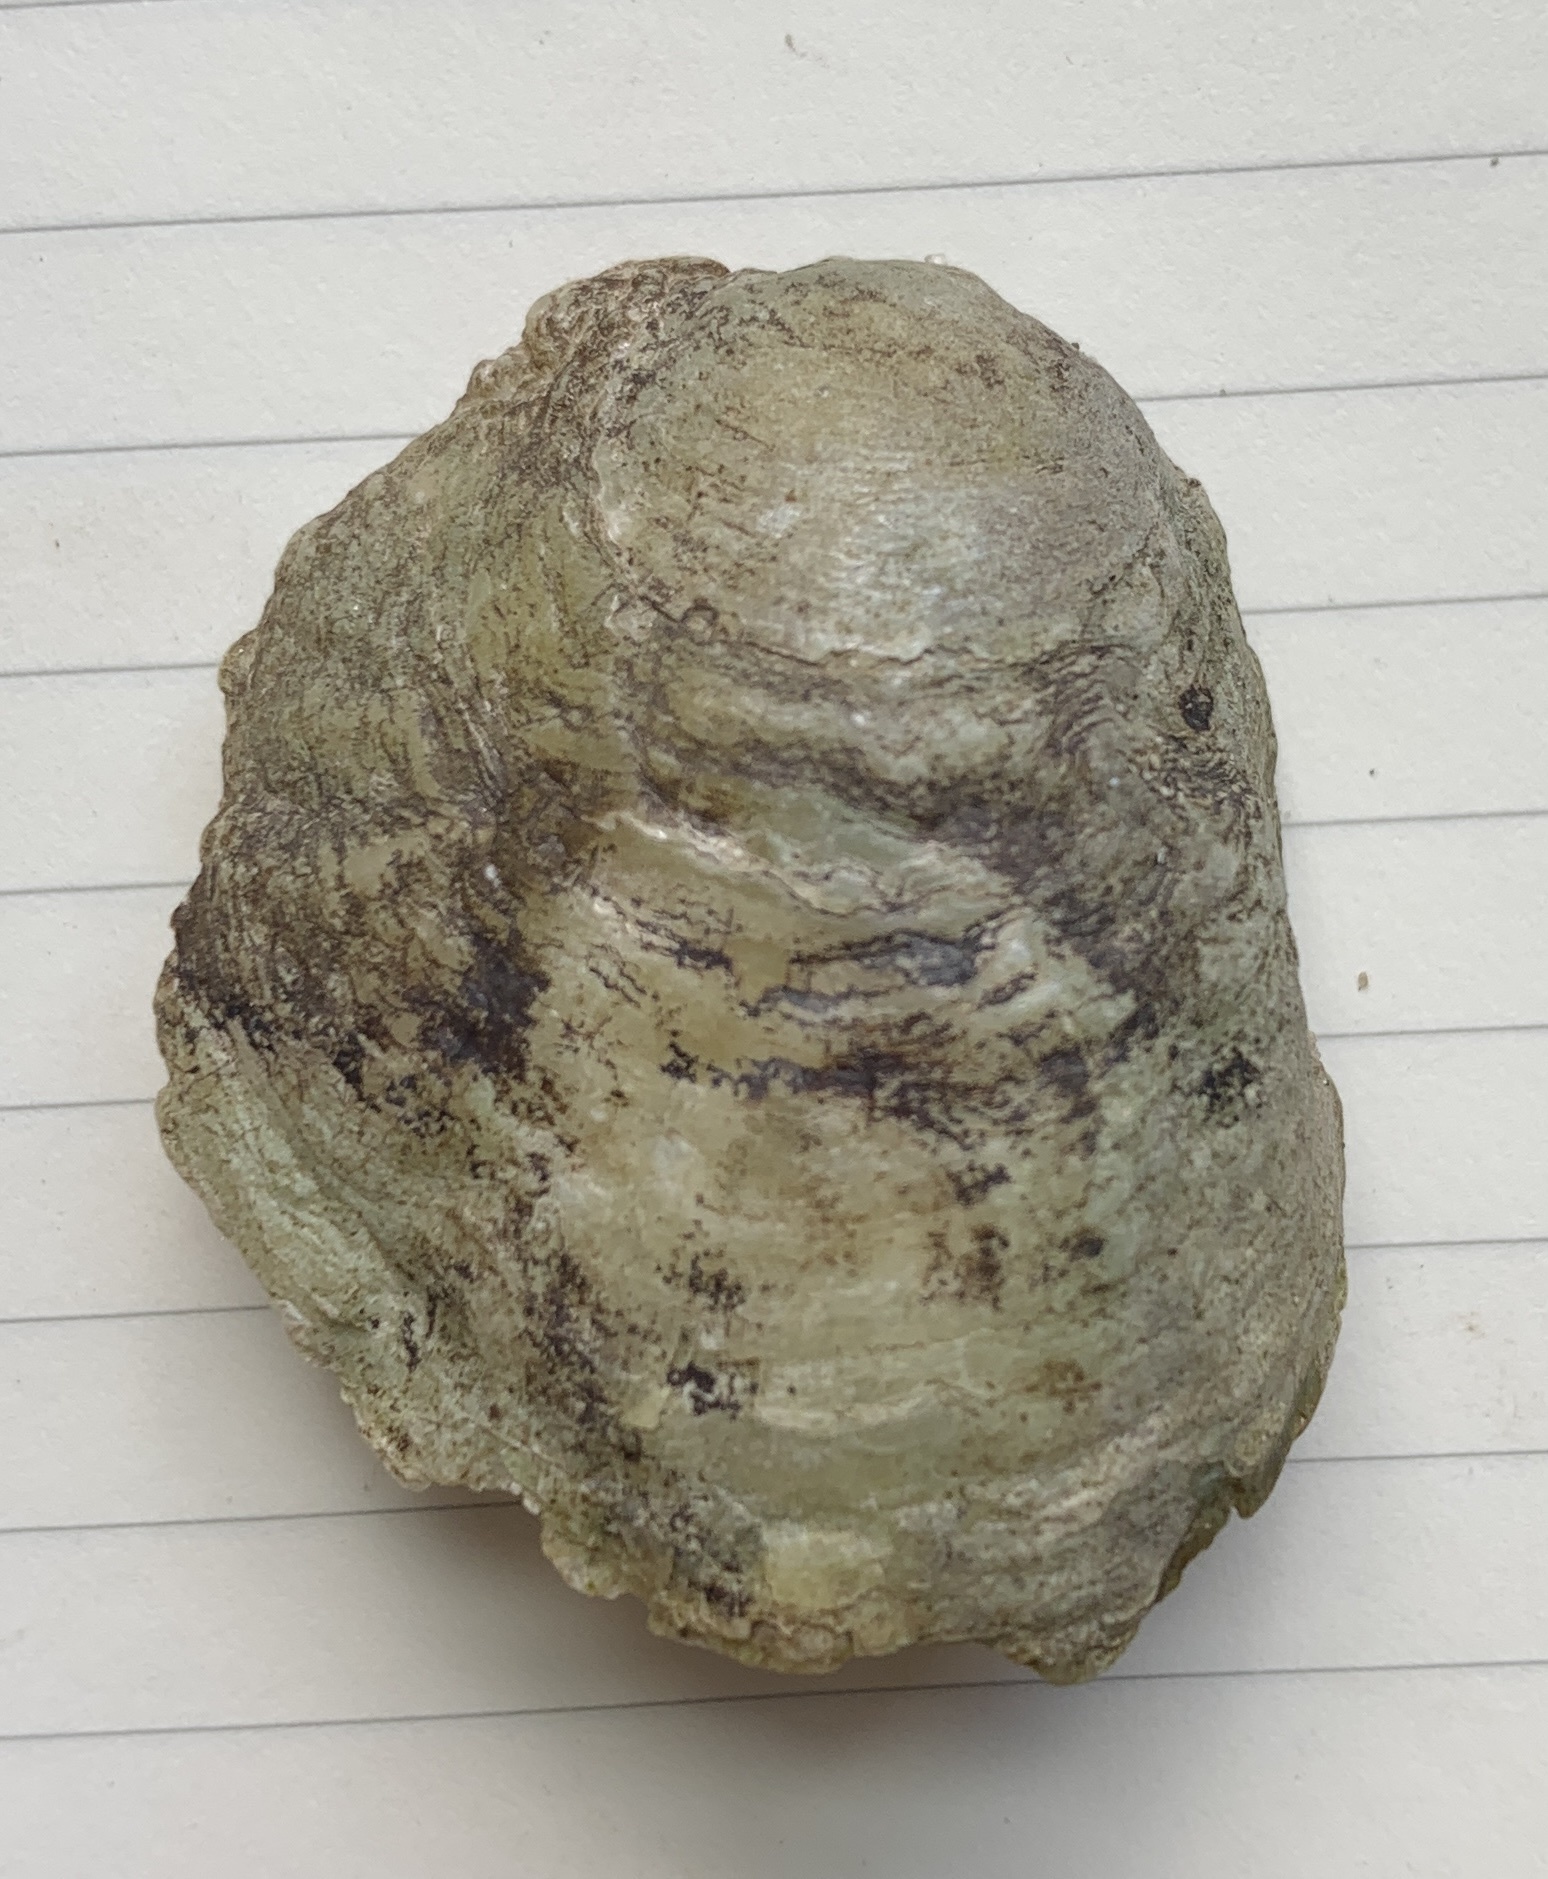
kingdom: Animalia
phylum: Mollusca
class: Bivalvia
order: Pectinida
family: Anomiidae
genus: Anomia
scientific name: Anomia simplex
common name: Common jingle shell
